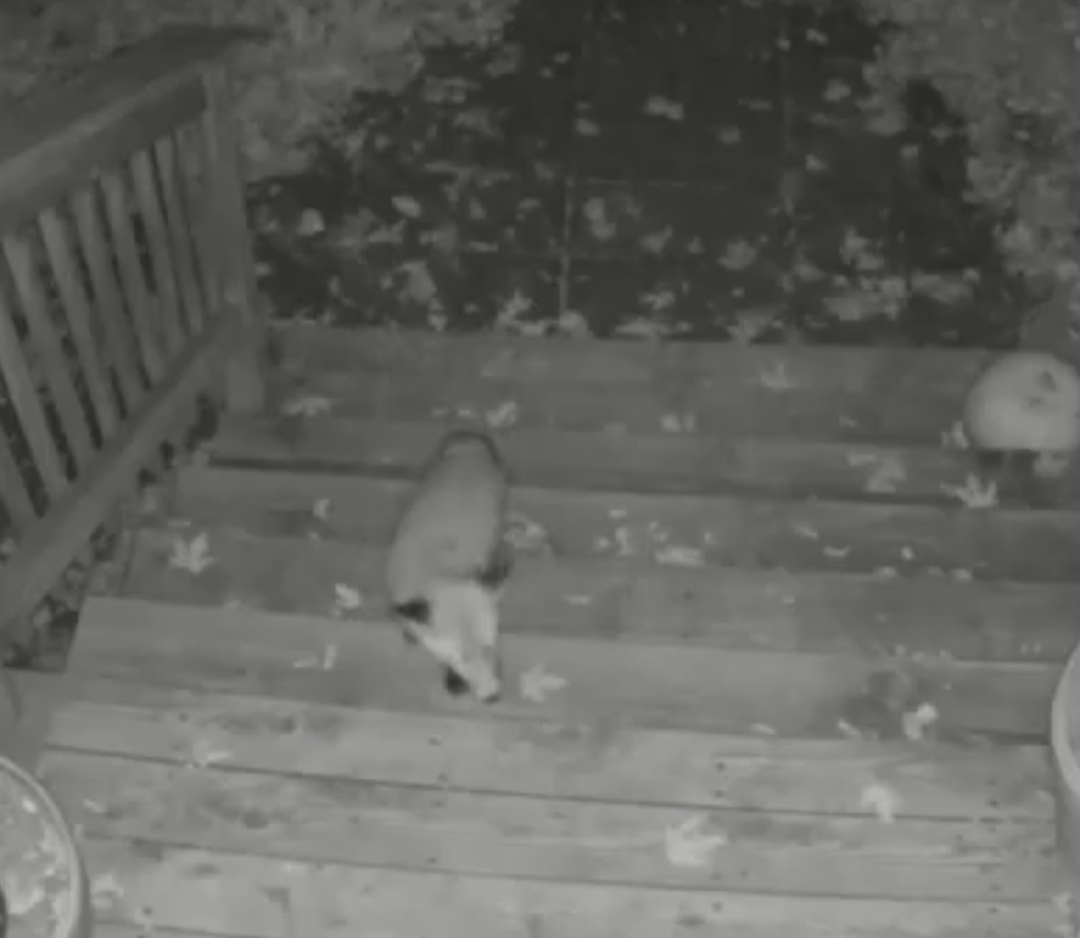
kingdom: Animalia
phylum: Chordata
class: Mammalia
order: Carnivora
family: Canidae
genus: Vulpes
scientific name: Vulpes vulpes
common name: Red fox
